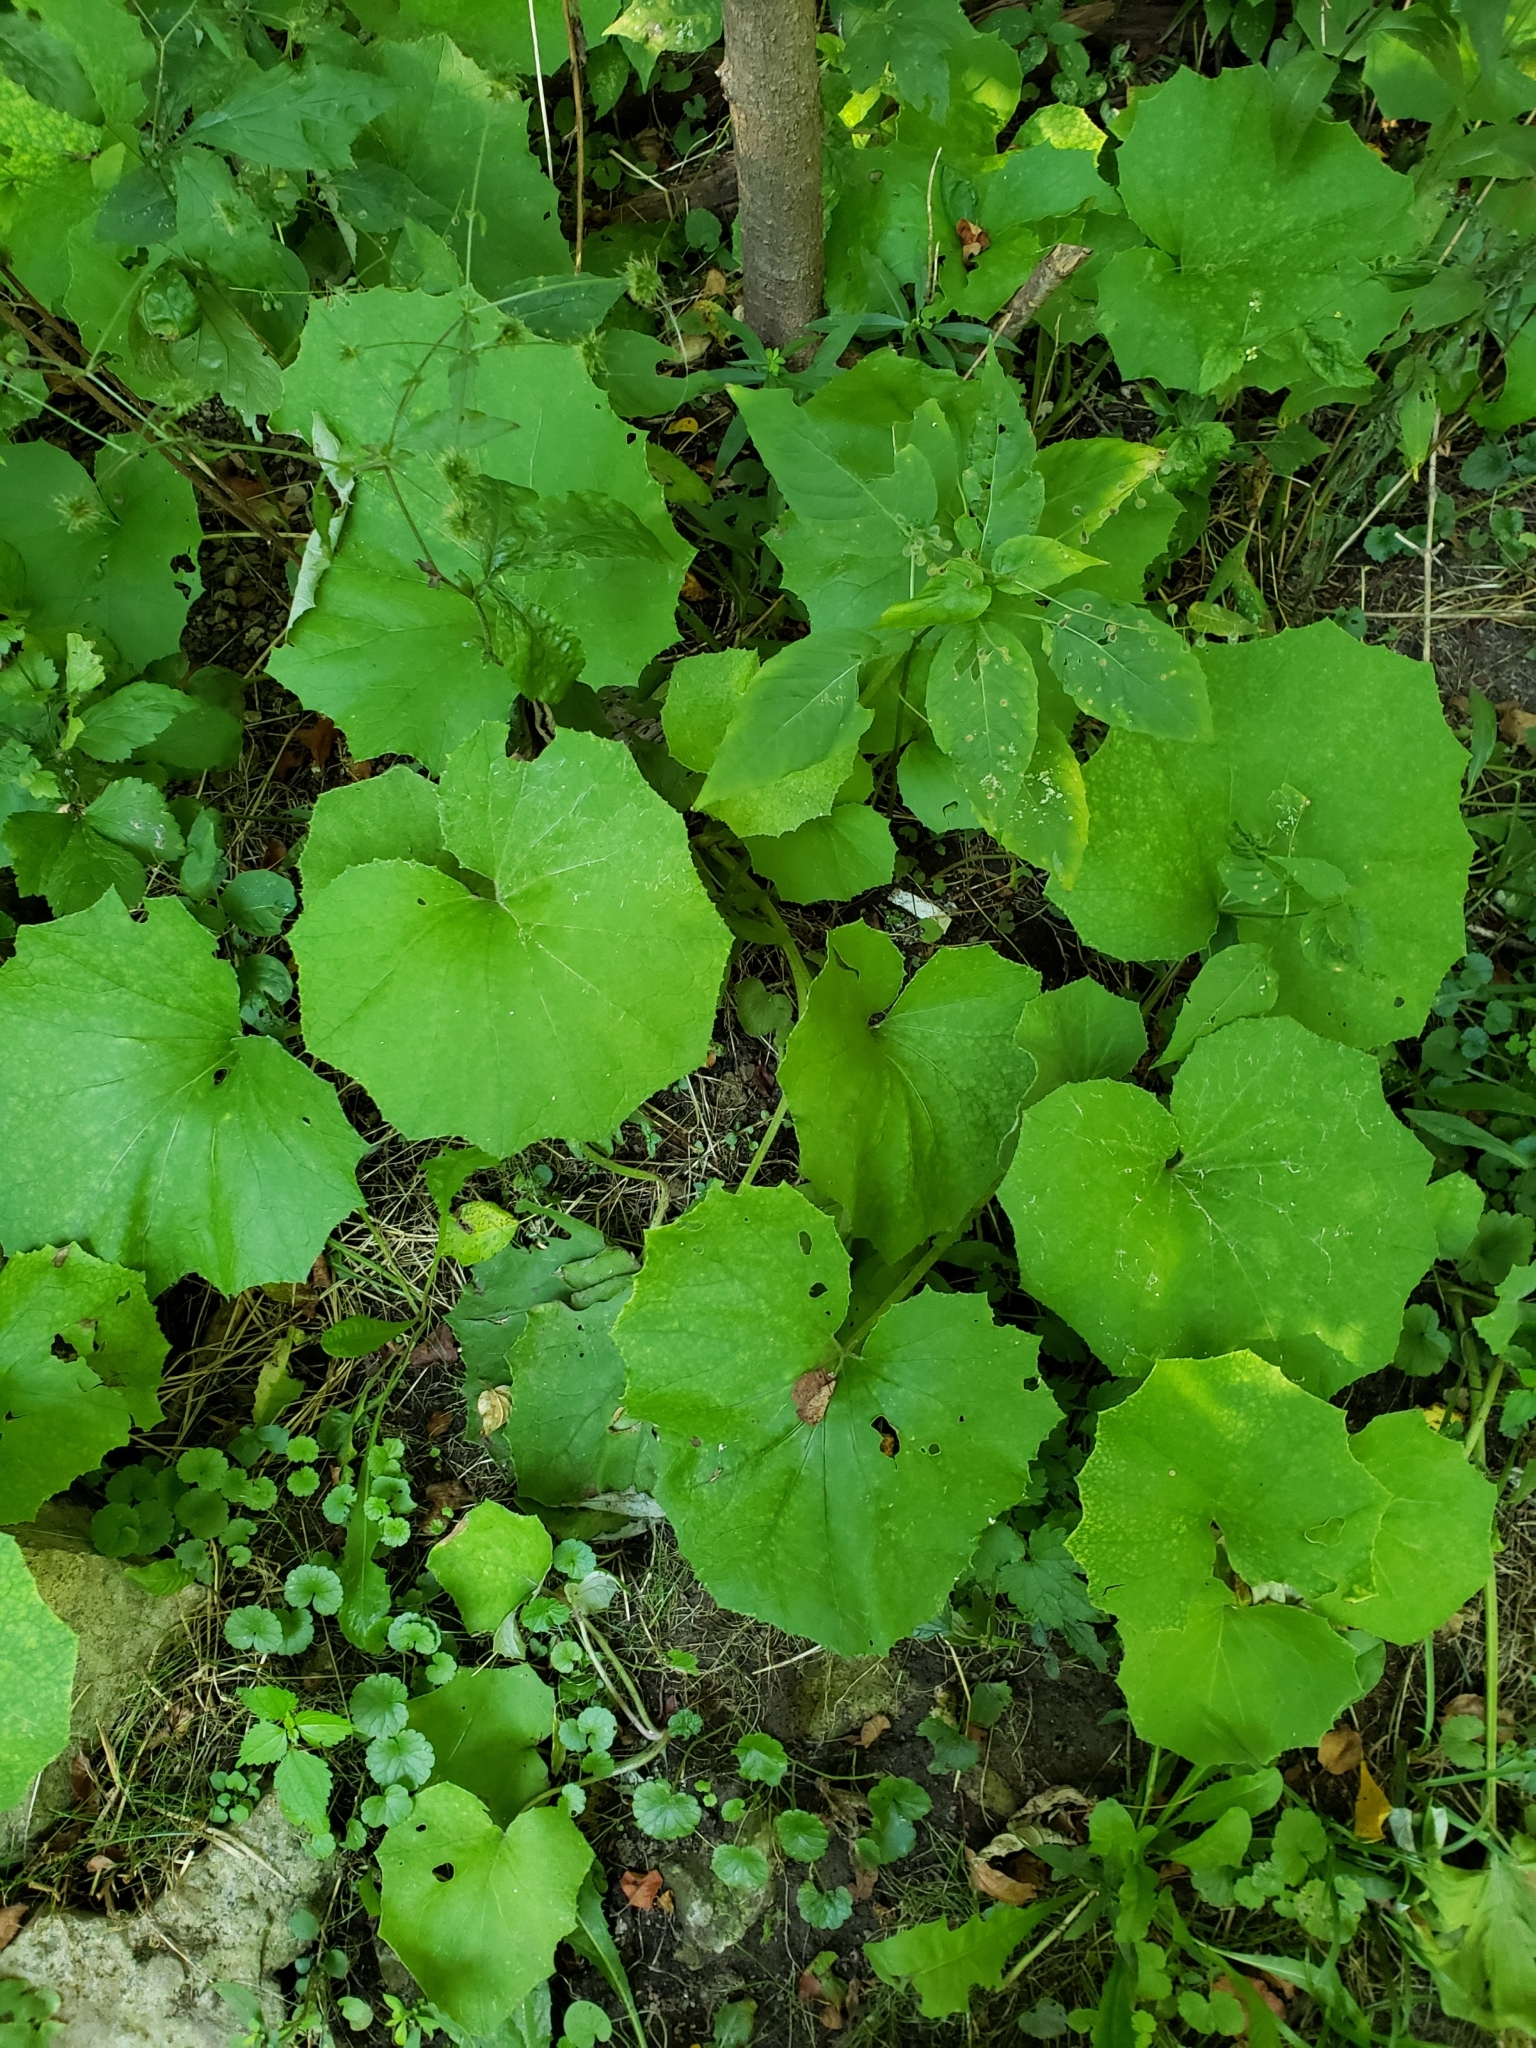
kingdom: Plantae
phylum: Tracheophyta
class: Magnoliopsida
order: Asterales
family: Asteraceae
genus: Tussilago
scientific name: Tussilago farfara
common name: Coltsfoot
